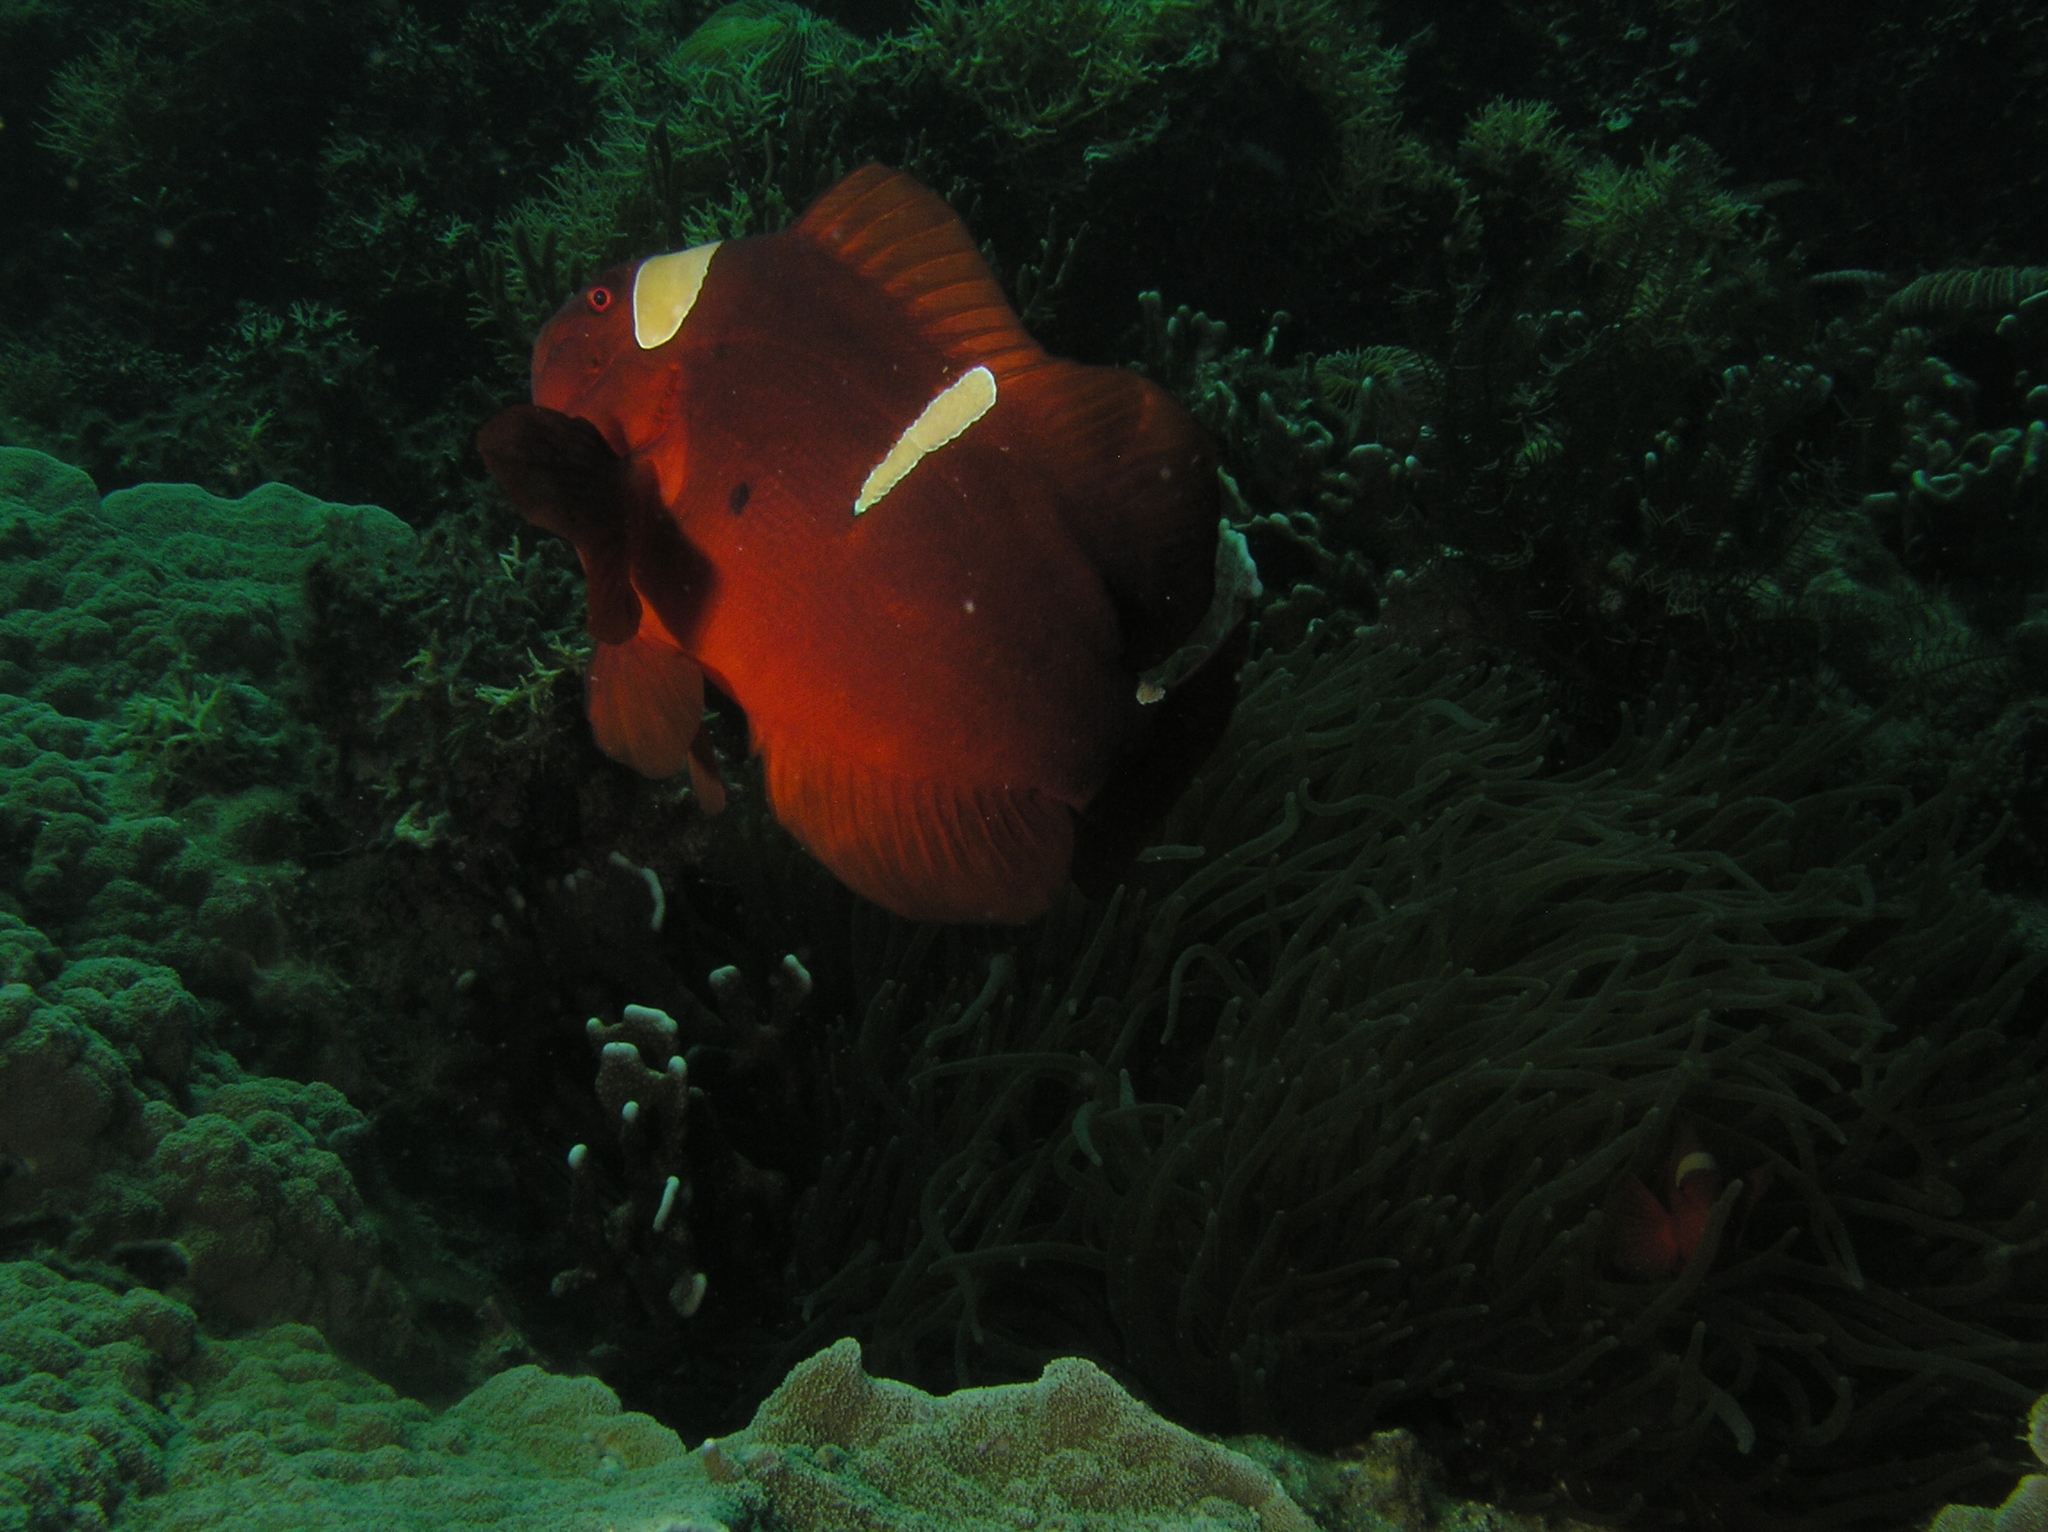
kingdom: Animalia
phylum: Chordata
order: Perciformes
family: Pomacentridae
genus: Premnas
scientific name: Premnas biaculeatus
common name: Spinecheek anemonefish
